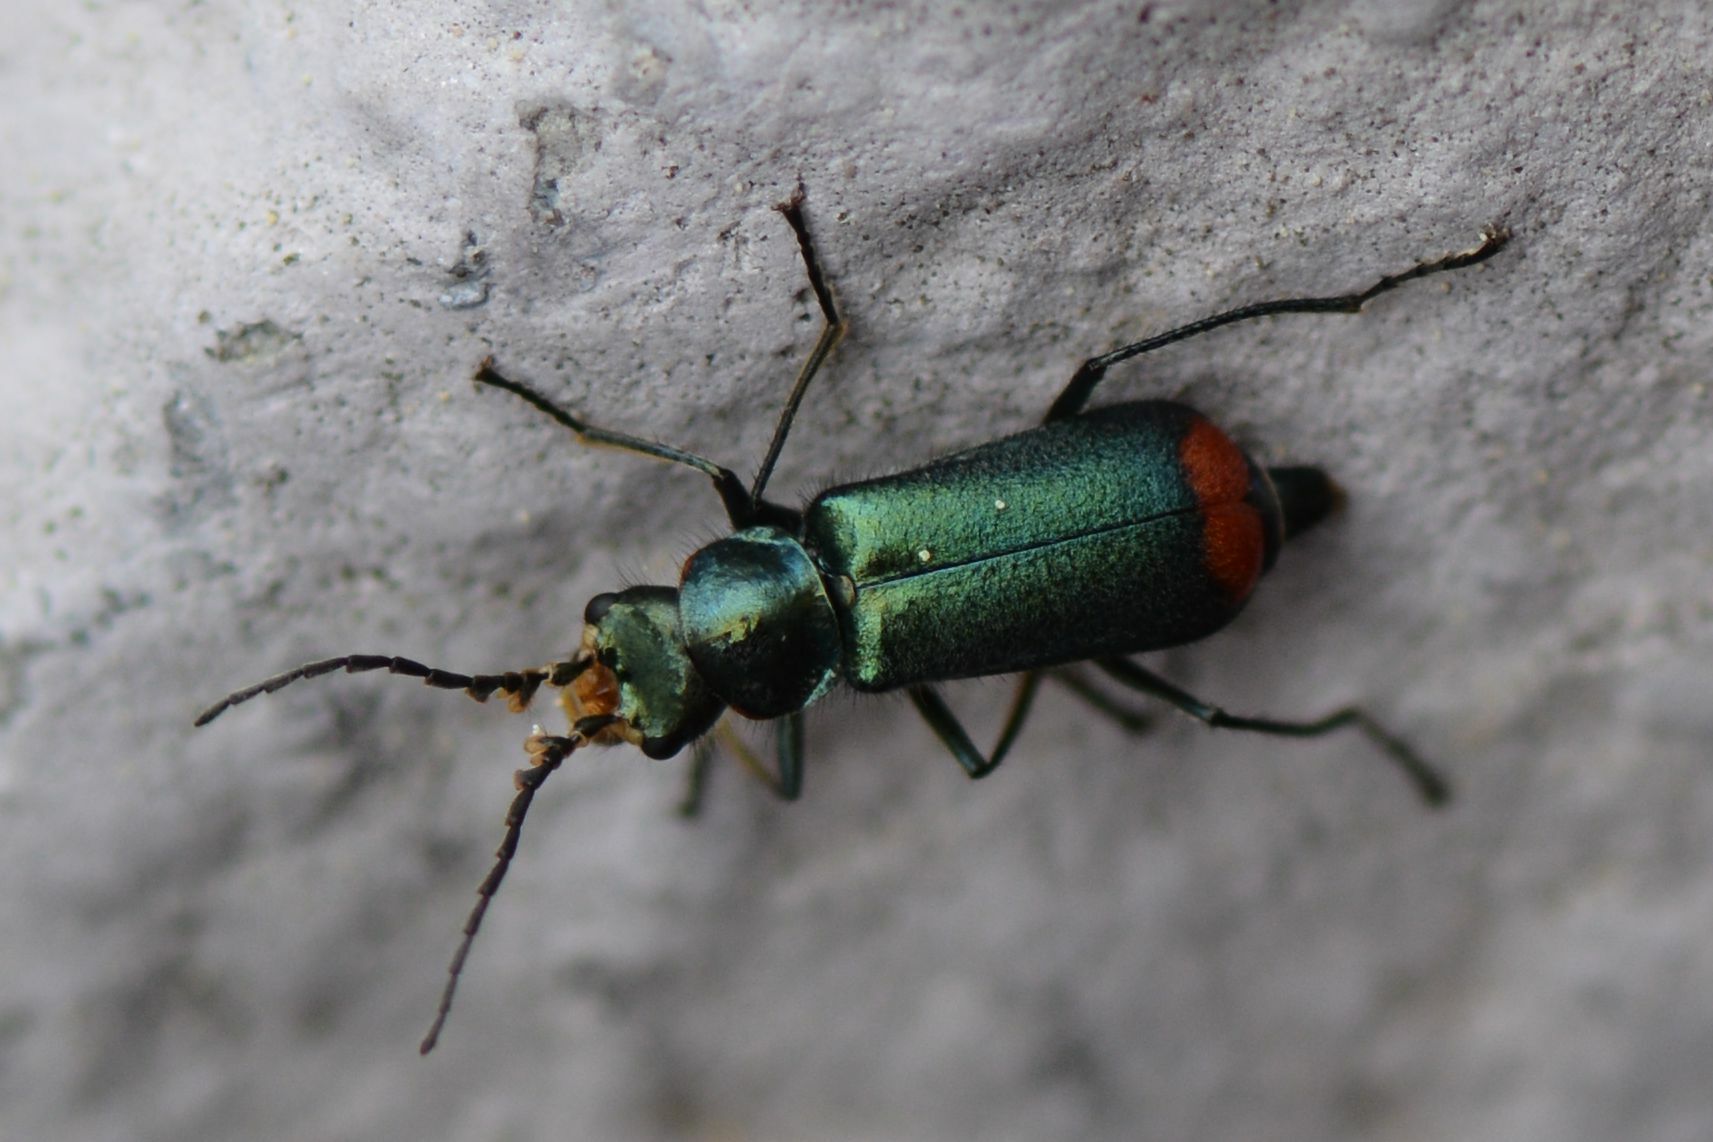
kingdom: Animalia
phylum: Arthropoda
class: Insecta
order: Coleoptera
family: Melyridae
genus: Malachius
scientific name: Malachius bipustulatus
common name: Malachite beetle
